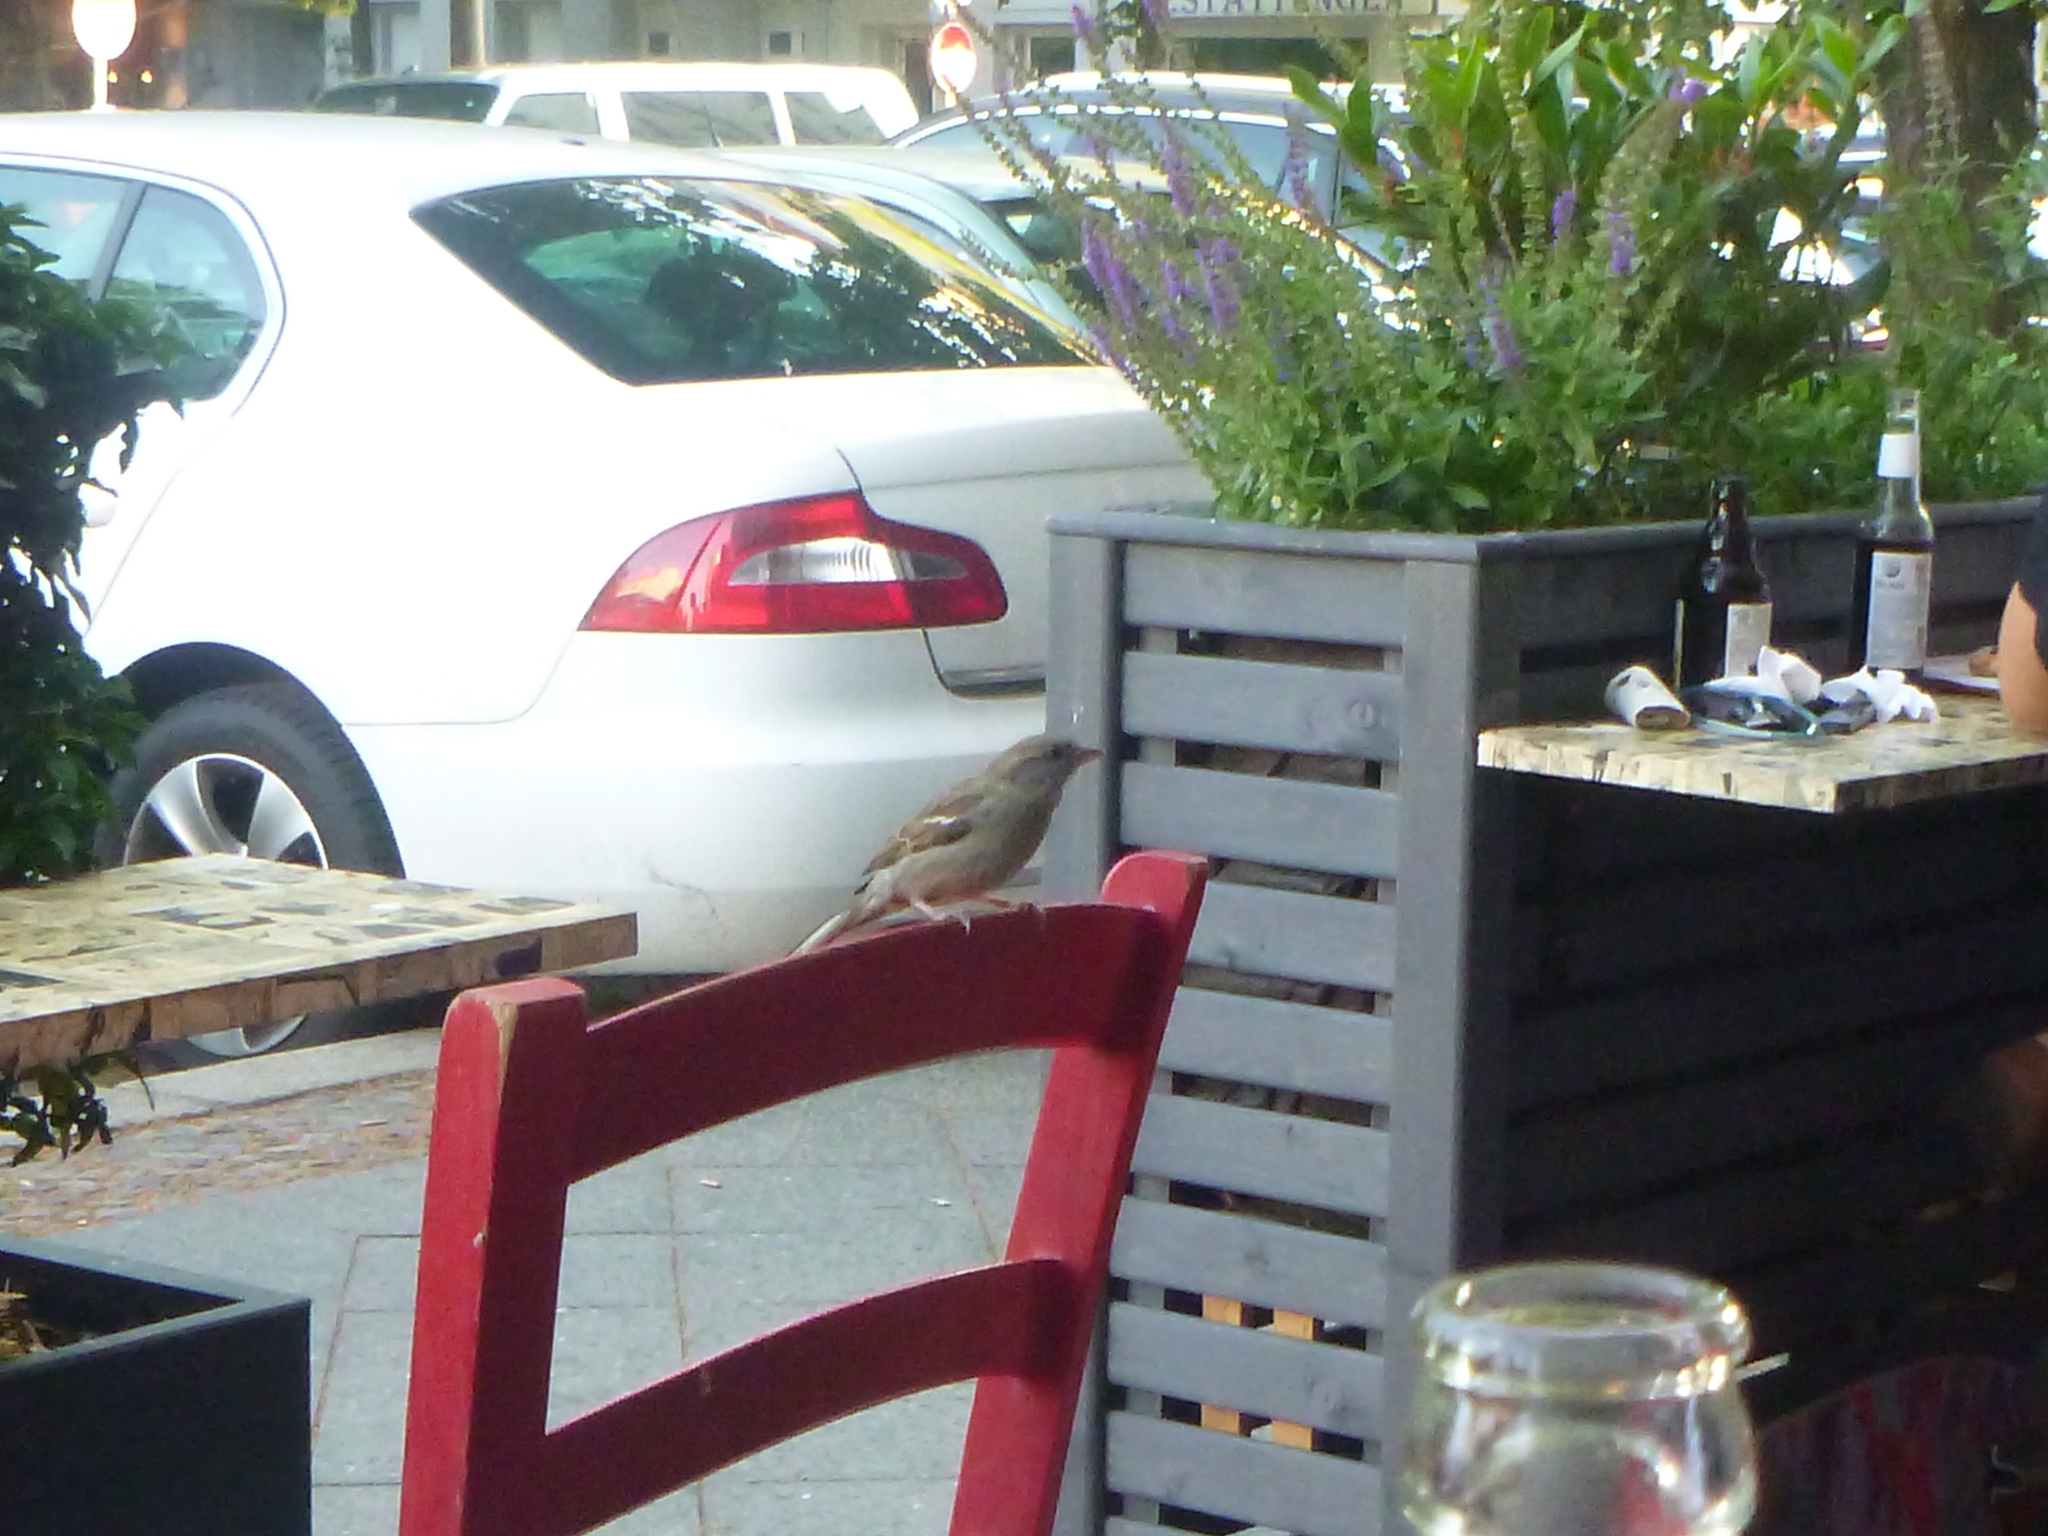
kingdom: Animalia
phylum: Chordata
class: Aves
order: Passeriformes
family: Passeridae
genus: Passer
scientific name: Passer domesticus
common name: House sparrow
